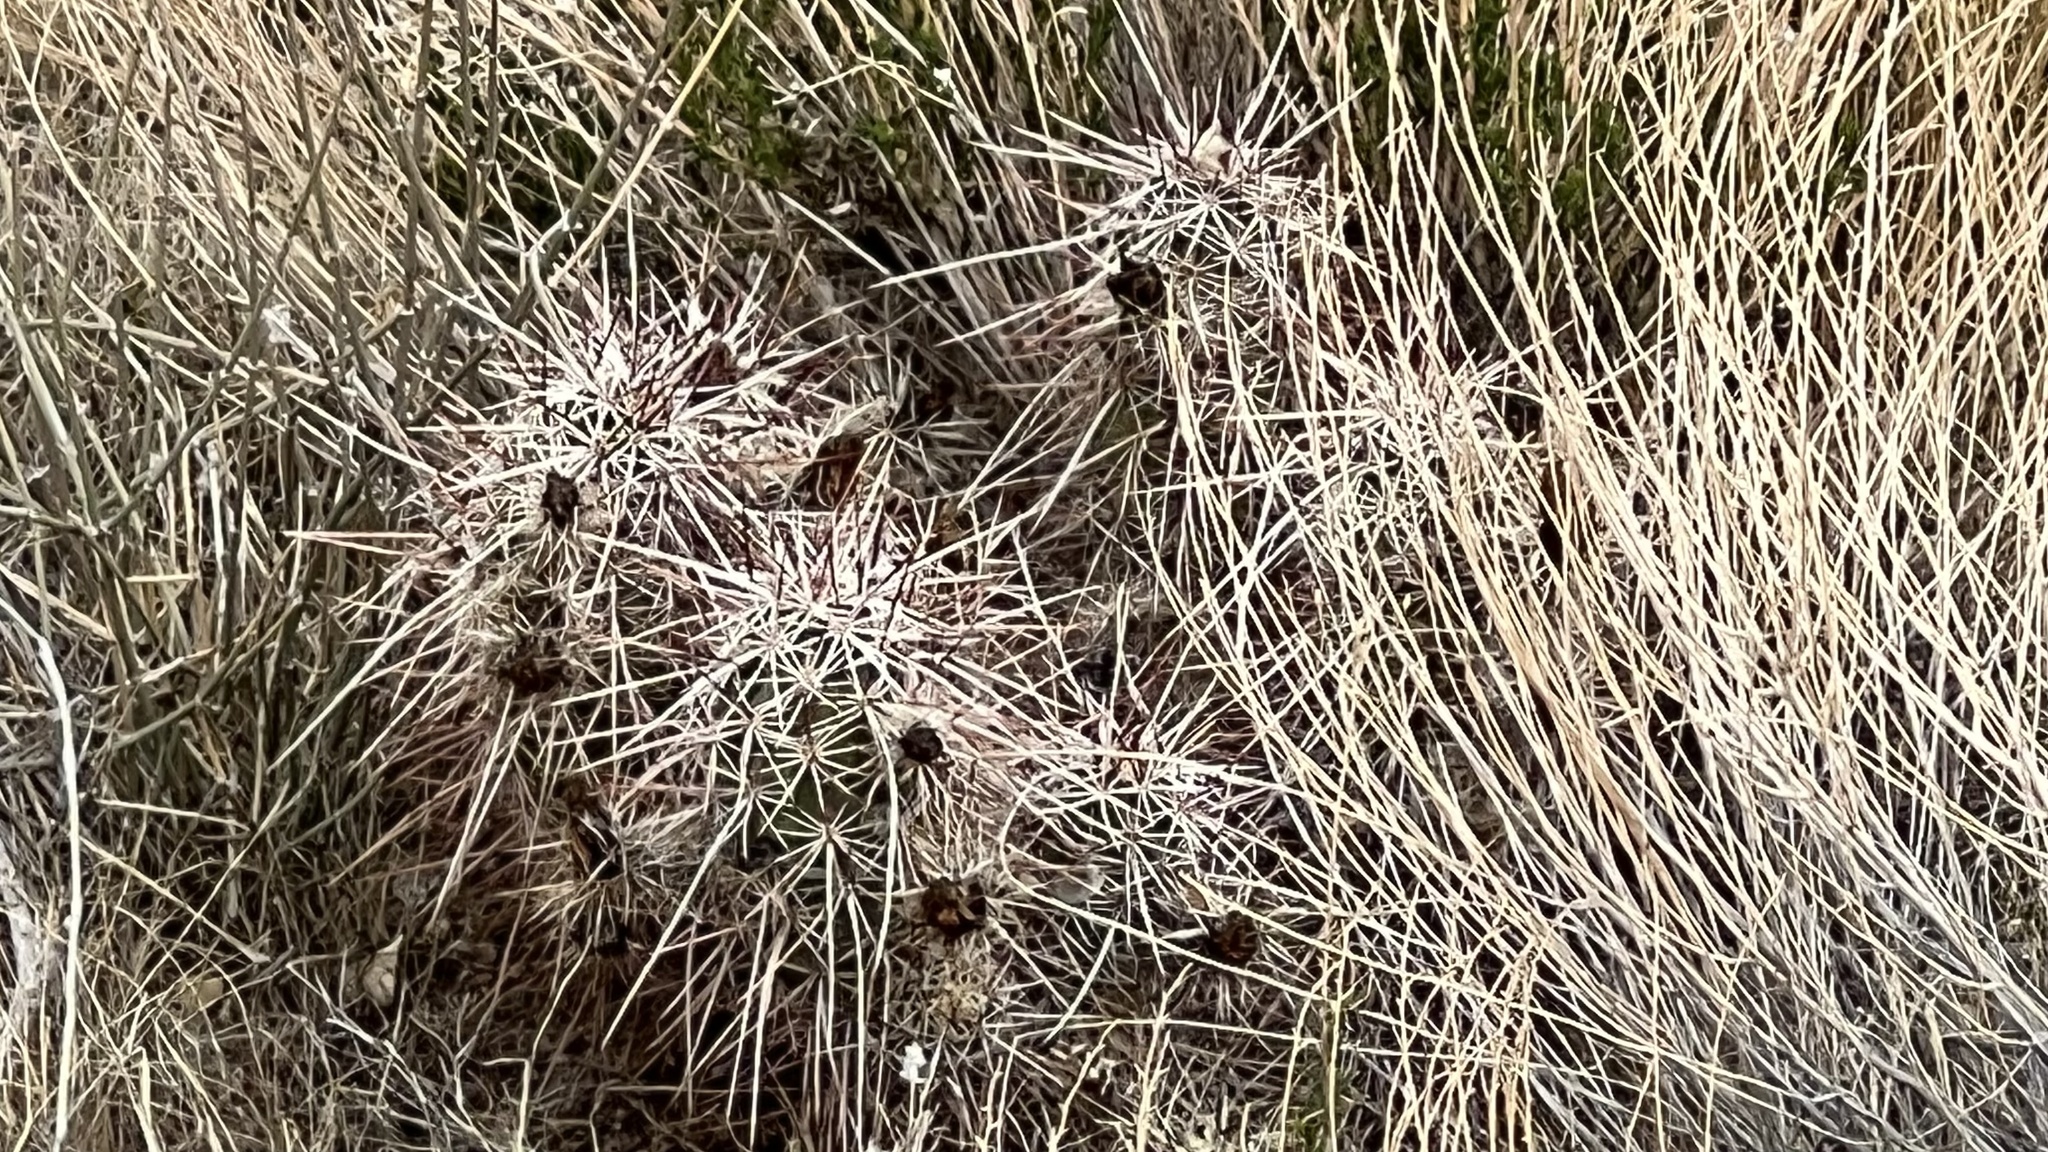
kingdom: Plantae
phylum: Tracheophyta
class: Magnoliopsida
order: Caryophyllales
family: Cactaceae
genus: Echinocereus
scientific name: Echinocereus engelmannii
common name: Engelmann's hedgehog cactus
